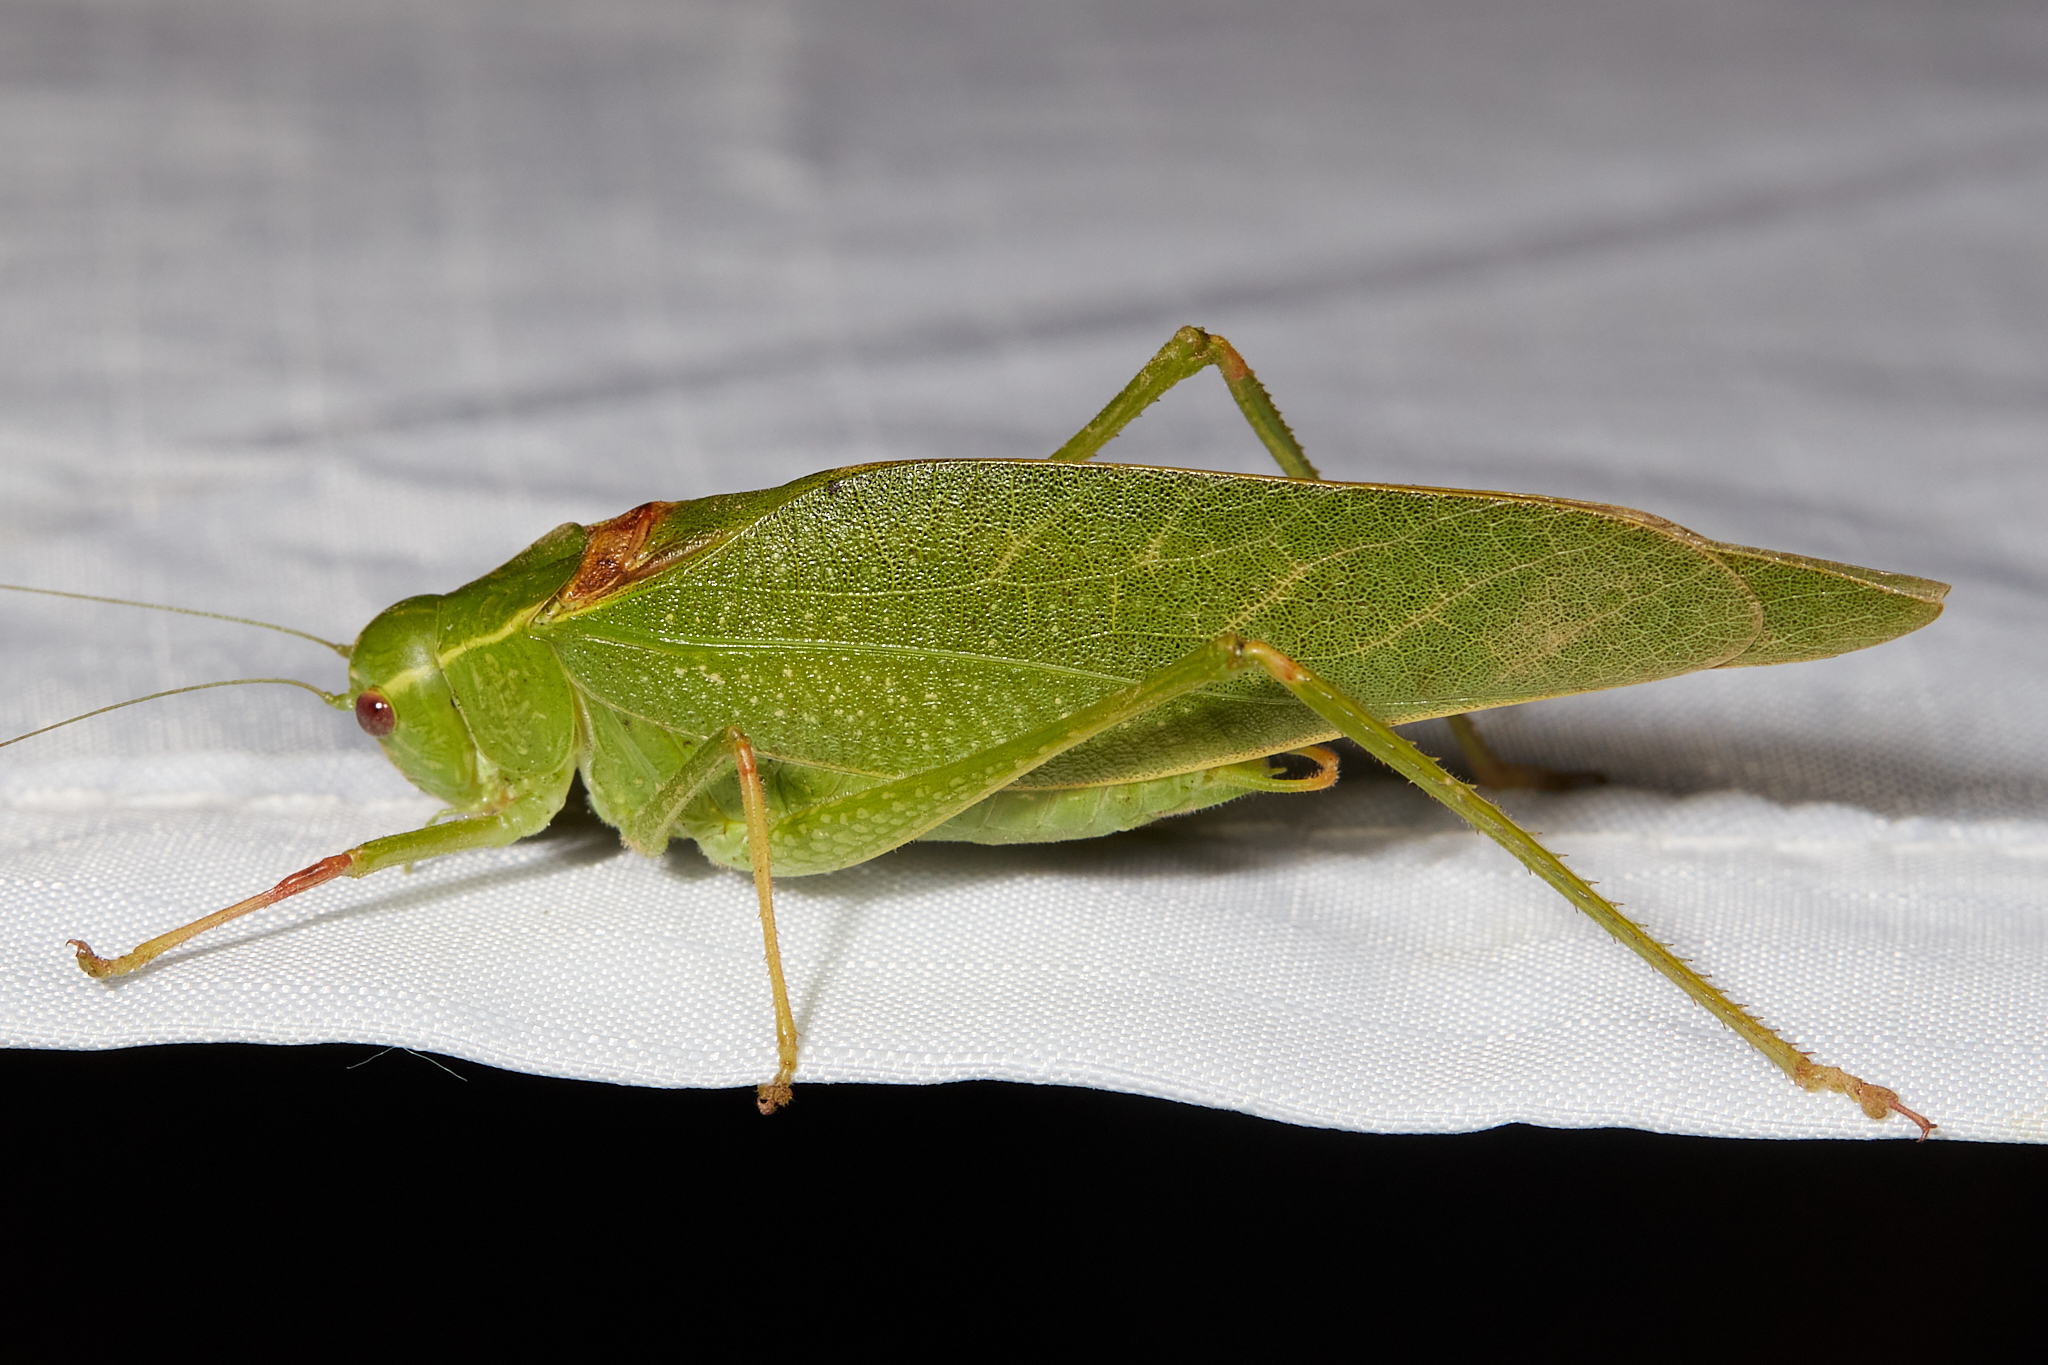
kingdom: Animalia
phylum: Arthropoda
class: Insecta
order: Orthoptera
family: Tettigoniidae
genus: Microcentrum
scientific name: Microcentrum californicum
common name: California angle-wing
